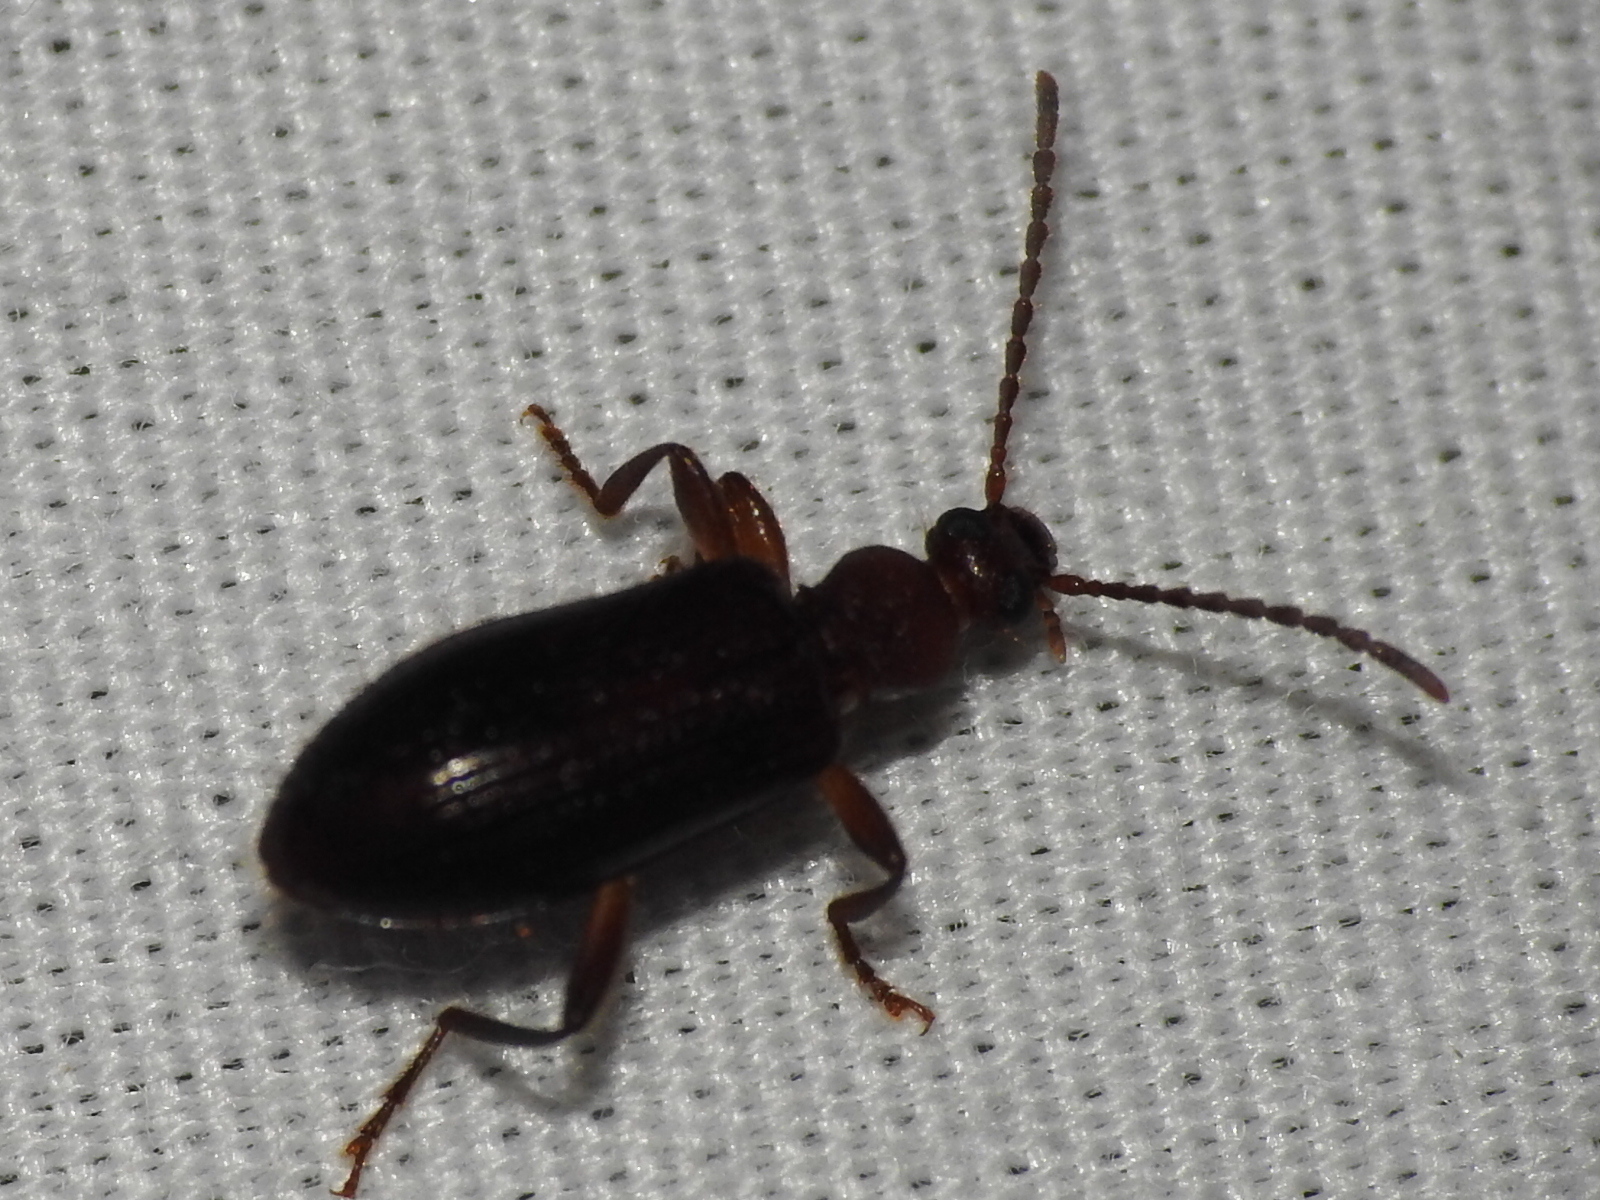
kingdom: Animalia
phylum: Arthropoda
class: Insecta
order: Coleoptera
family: Tenebrionidae
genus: Statira
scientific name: Statira hirsuta
